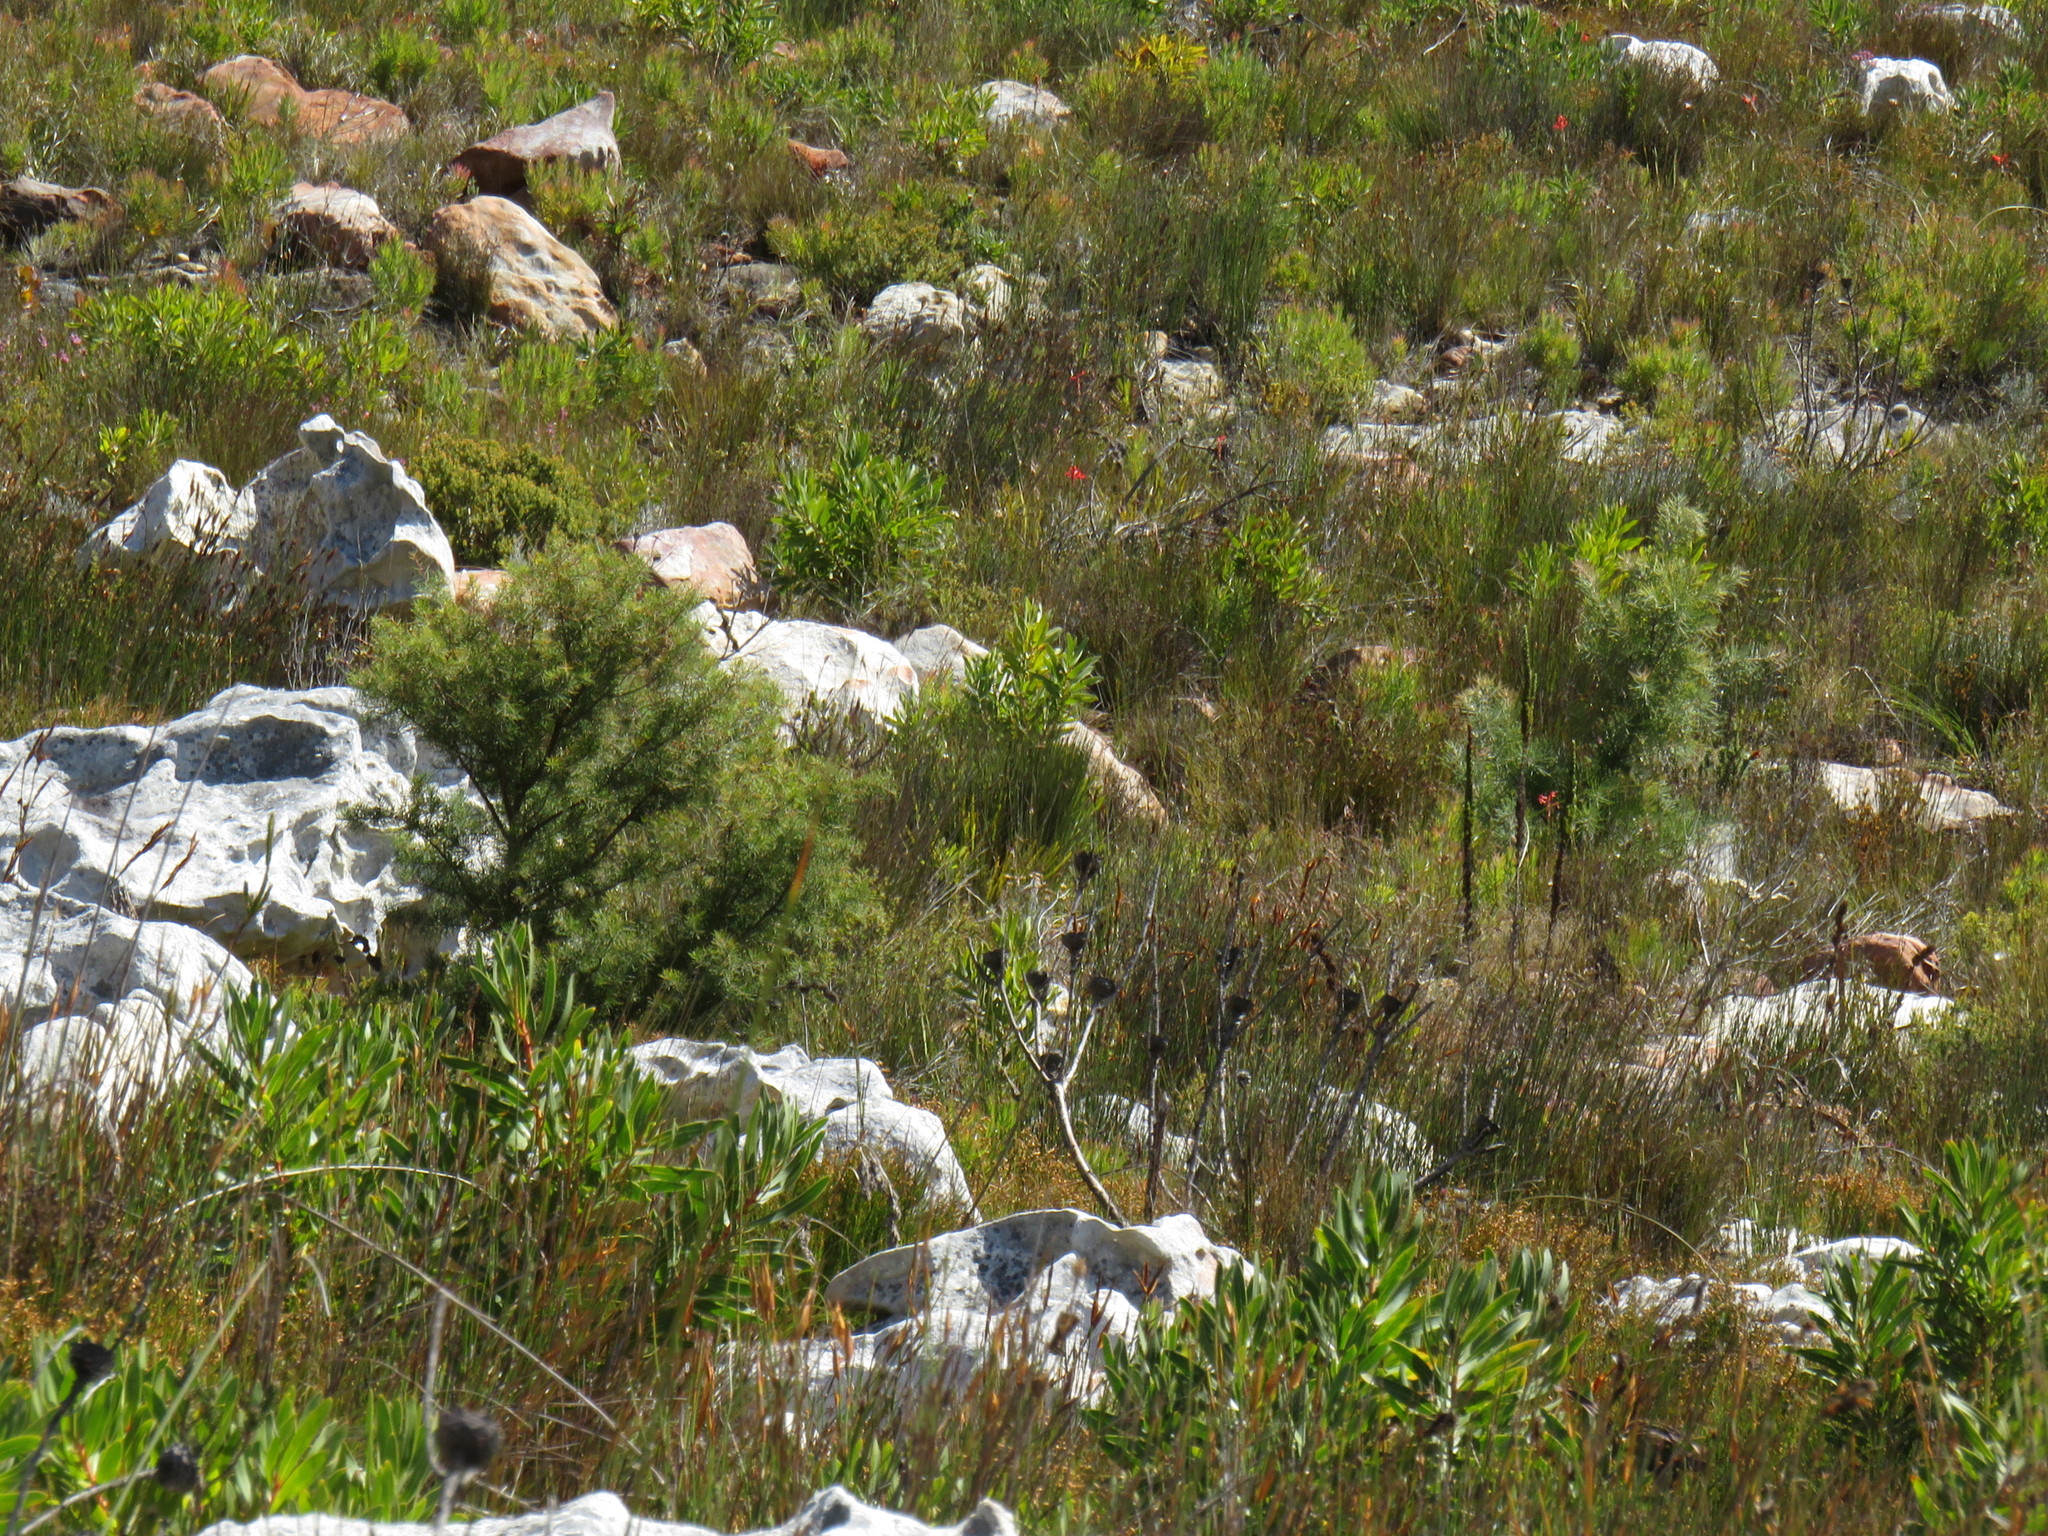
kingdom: Plantae
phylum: Tracheophyta
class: Magnoliopsida
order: Proteales
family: Proteaceae
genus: Hakea
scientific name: Hakea sericea
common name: Needle bush
